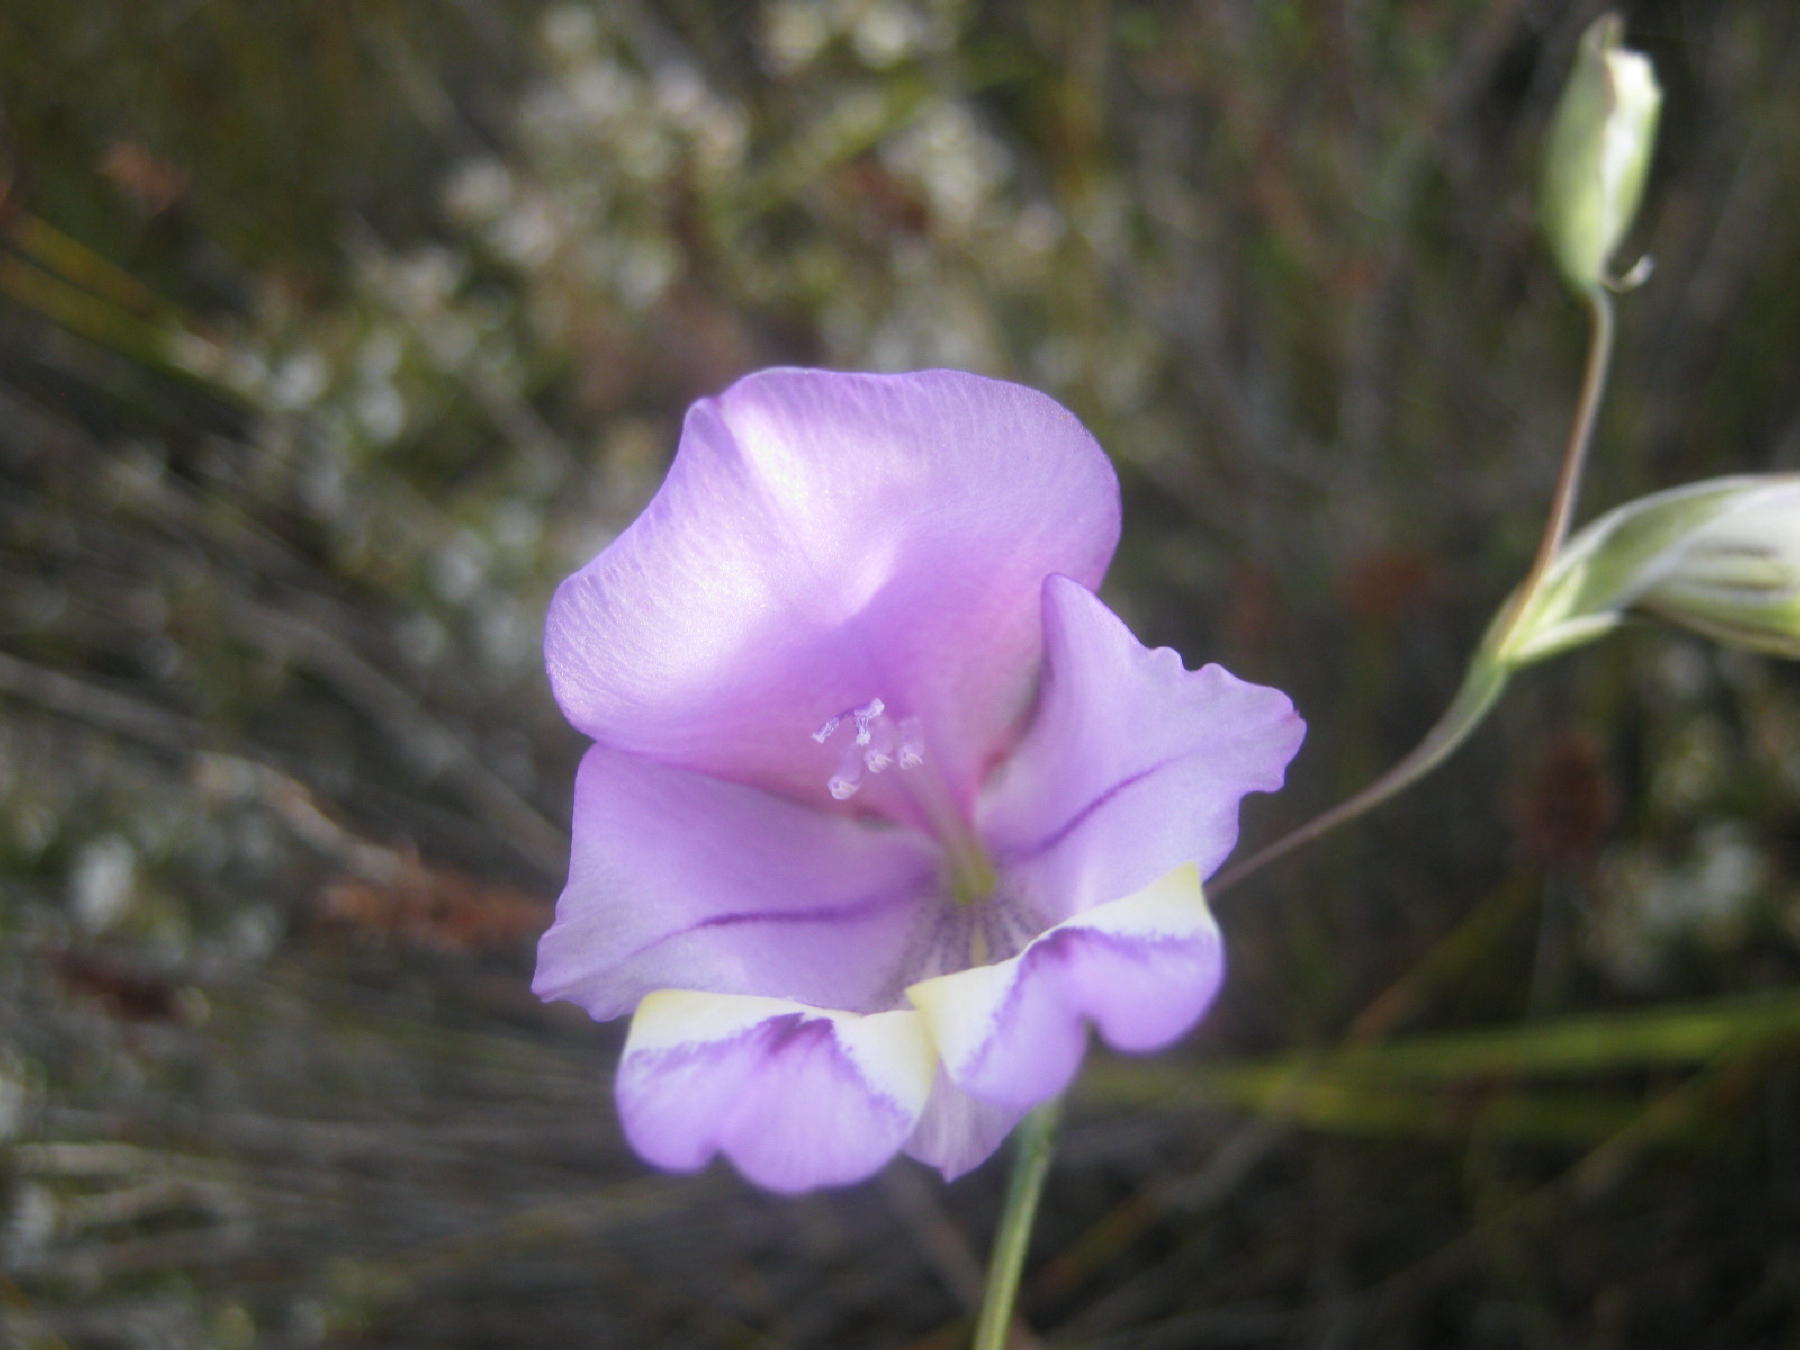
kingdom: Plantae
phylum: Tracheophyta
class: Liliopsida
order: Asparagales
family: Iridaceae
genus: Gladiolus
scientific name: Gladiolus rogersii
